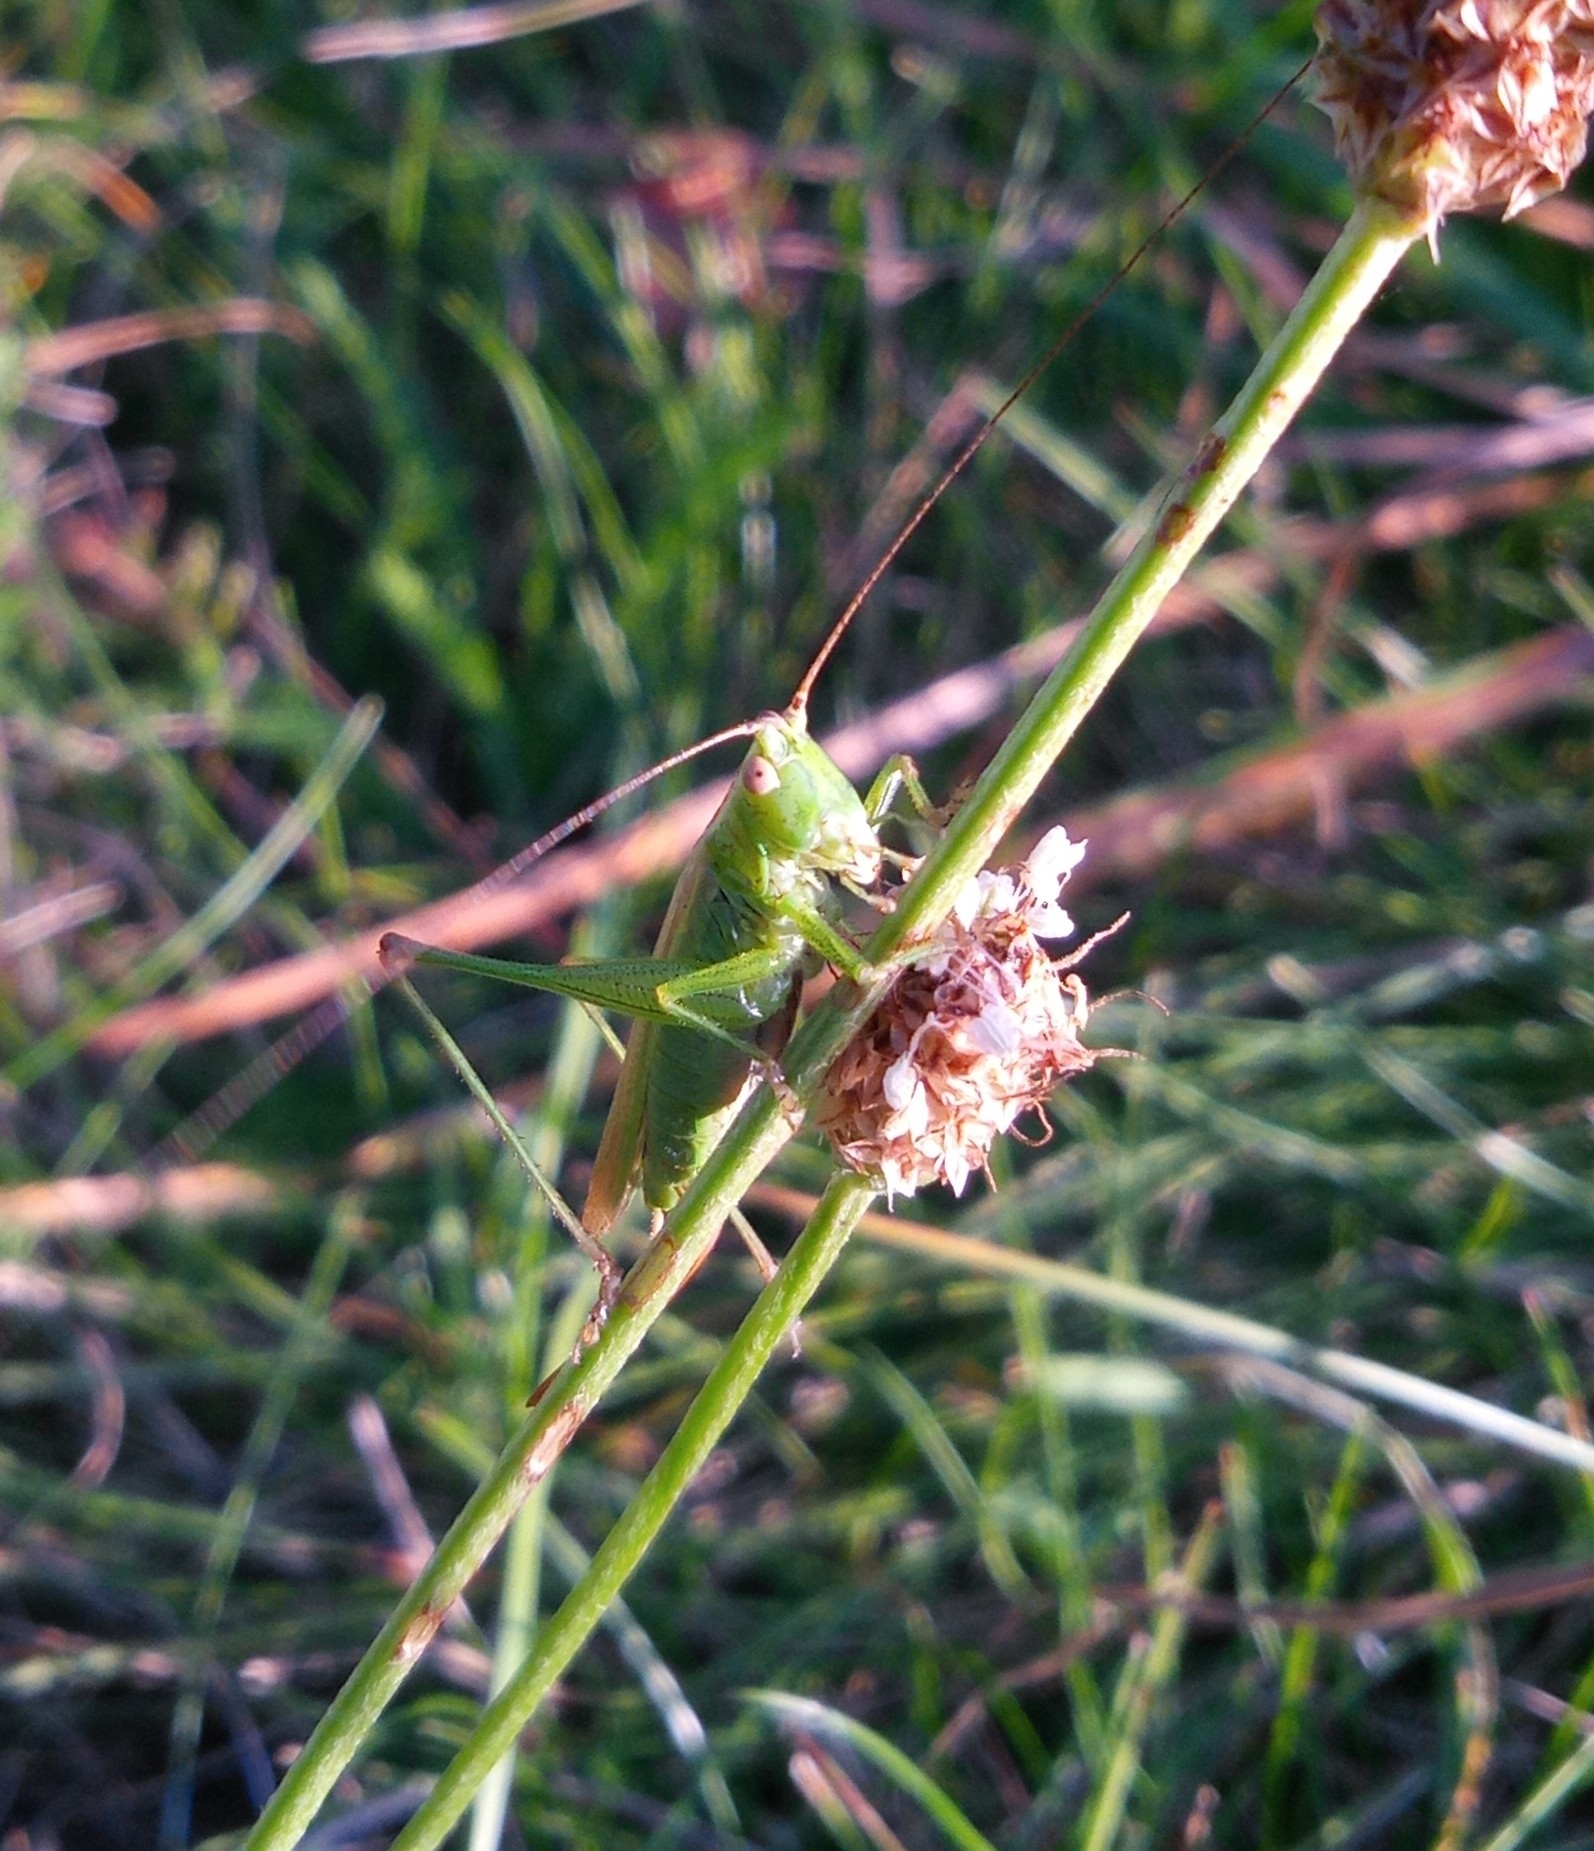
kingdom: Animalia
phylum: Arthropoda
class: Insecta
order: Orthoptera
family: Tettigoniidae
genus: Conocephalus
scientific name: Conocephalus fuscus
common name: Long-winged conehead
